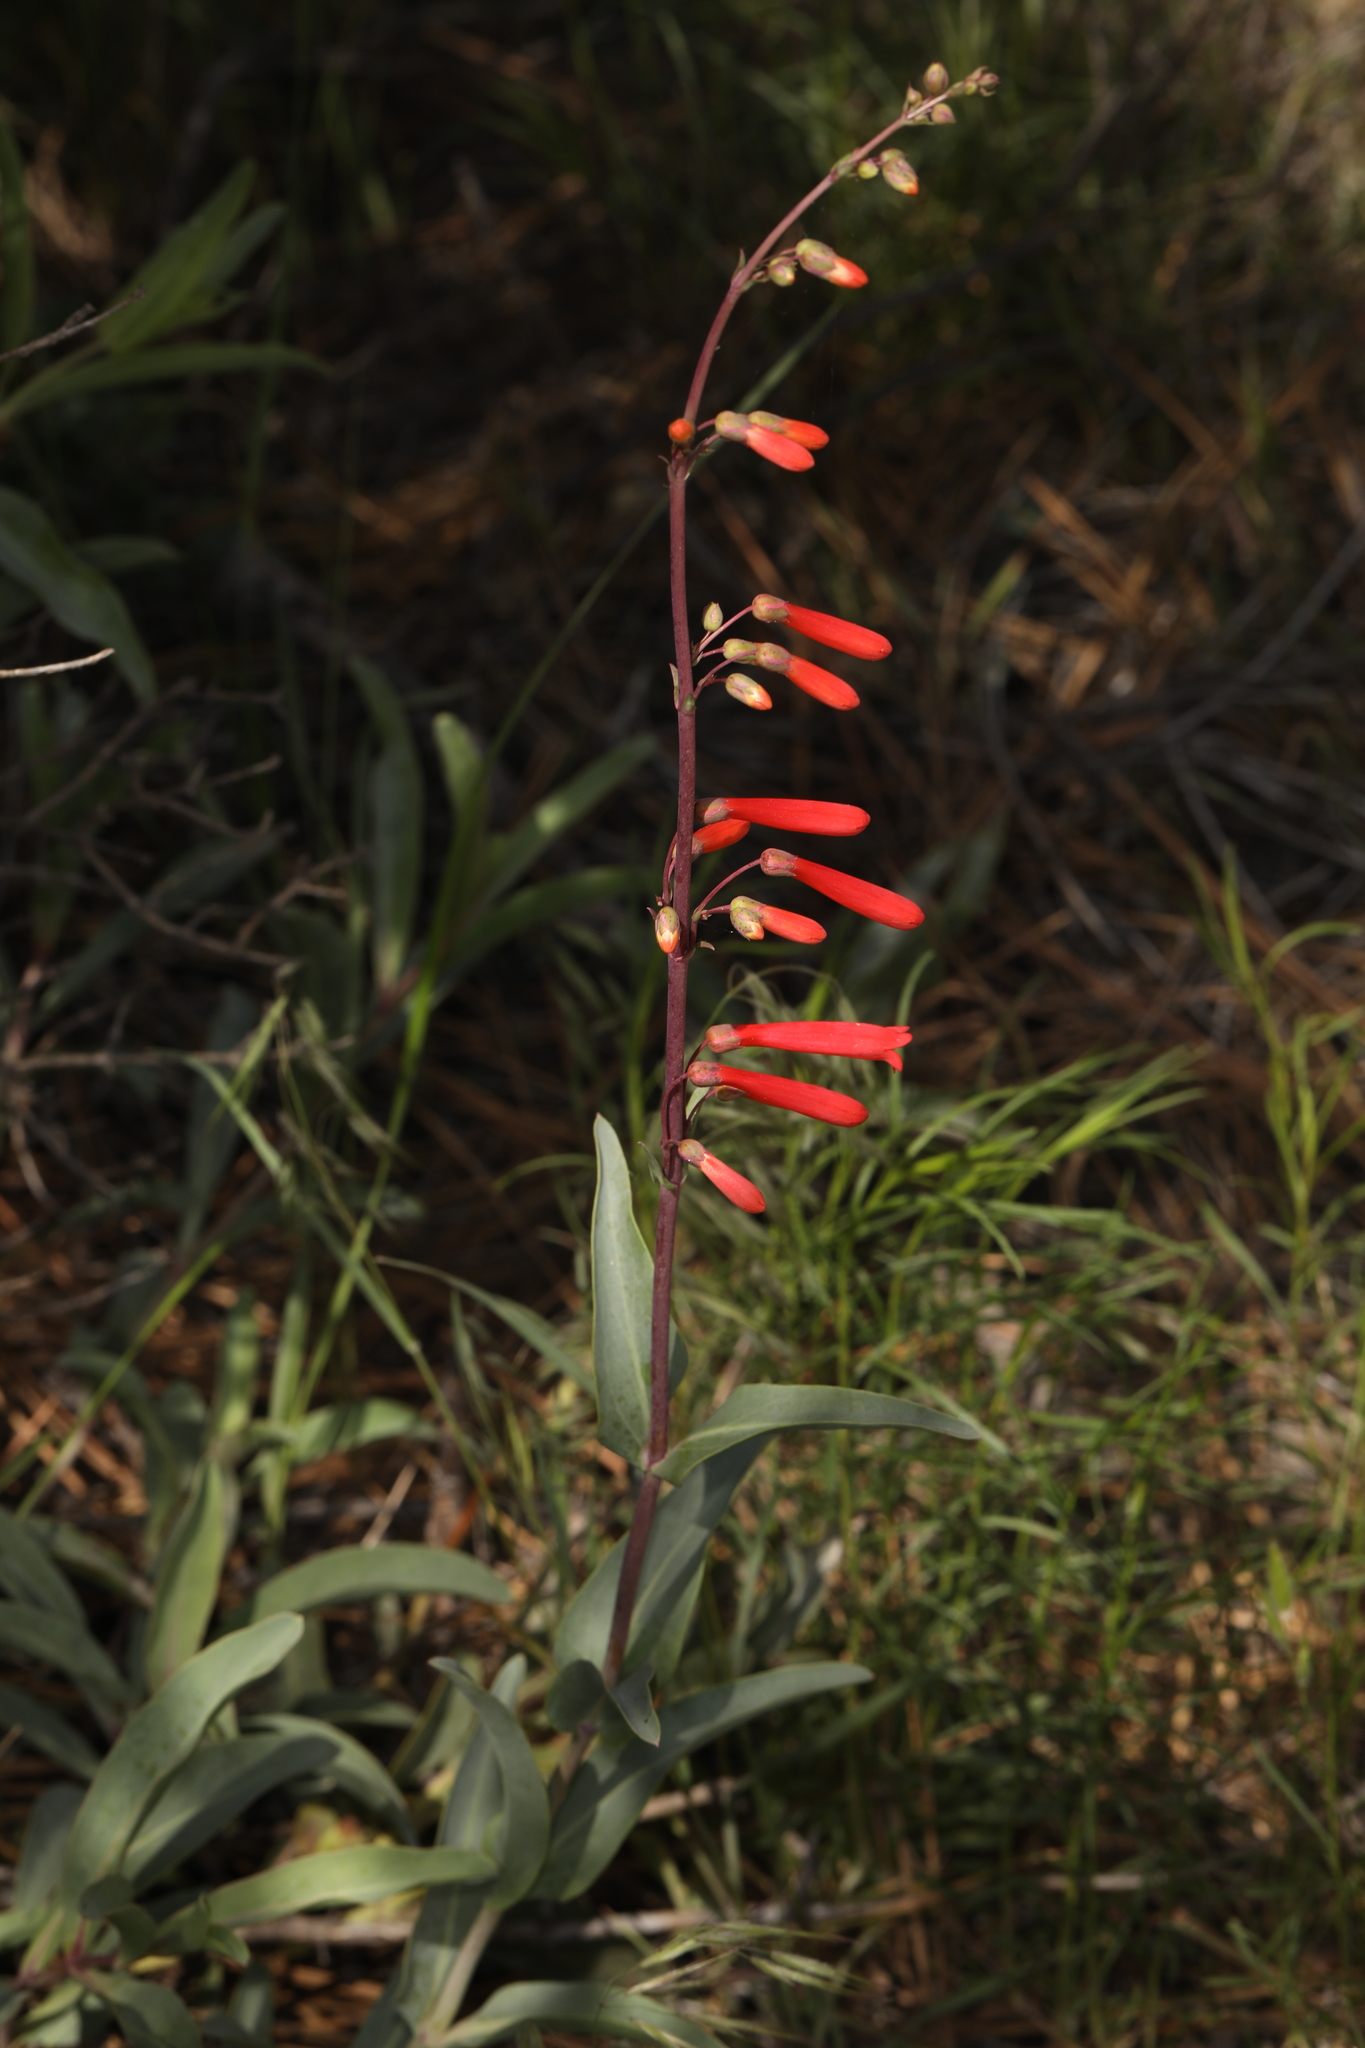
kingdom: Plantae
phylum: Tracheophyta
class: Magnoliopsida
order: Lamiales
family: Plantaginaceae
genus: Penstemon
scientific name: Penstemon centranthifolius
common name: Scarlet bugler
